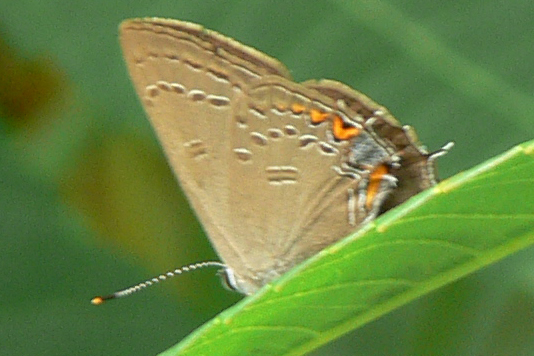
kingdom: Animalia
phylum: Arthropoda
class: Insecta
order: Lepidoptera
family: Lycaenidae
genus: Satyrium
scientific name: Satyrium edwardsii
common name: Edwards' hairstreak
